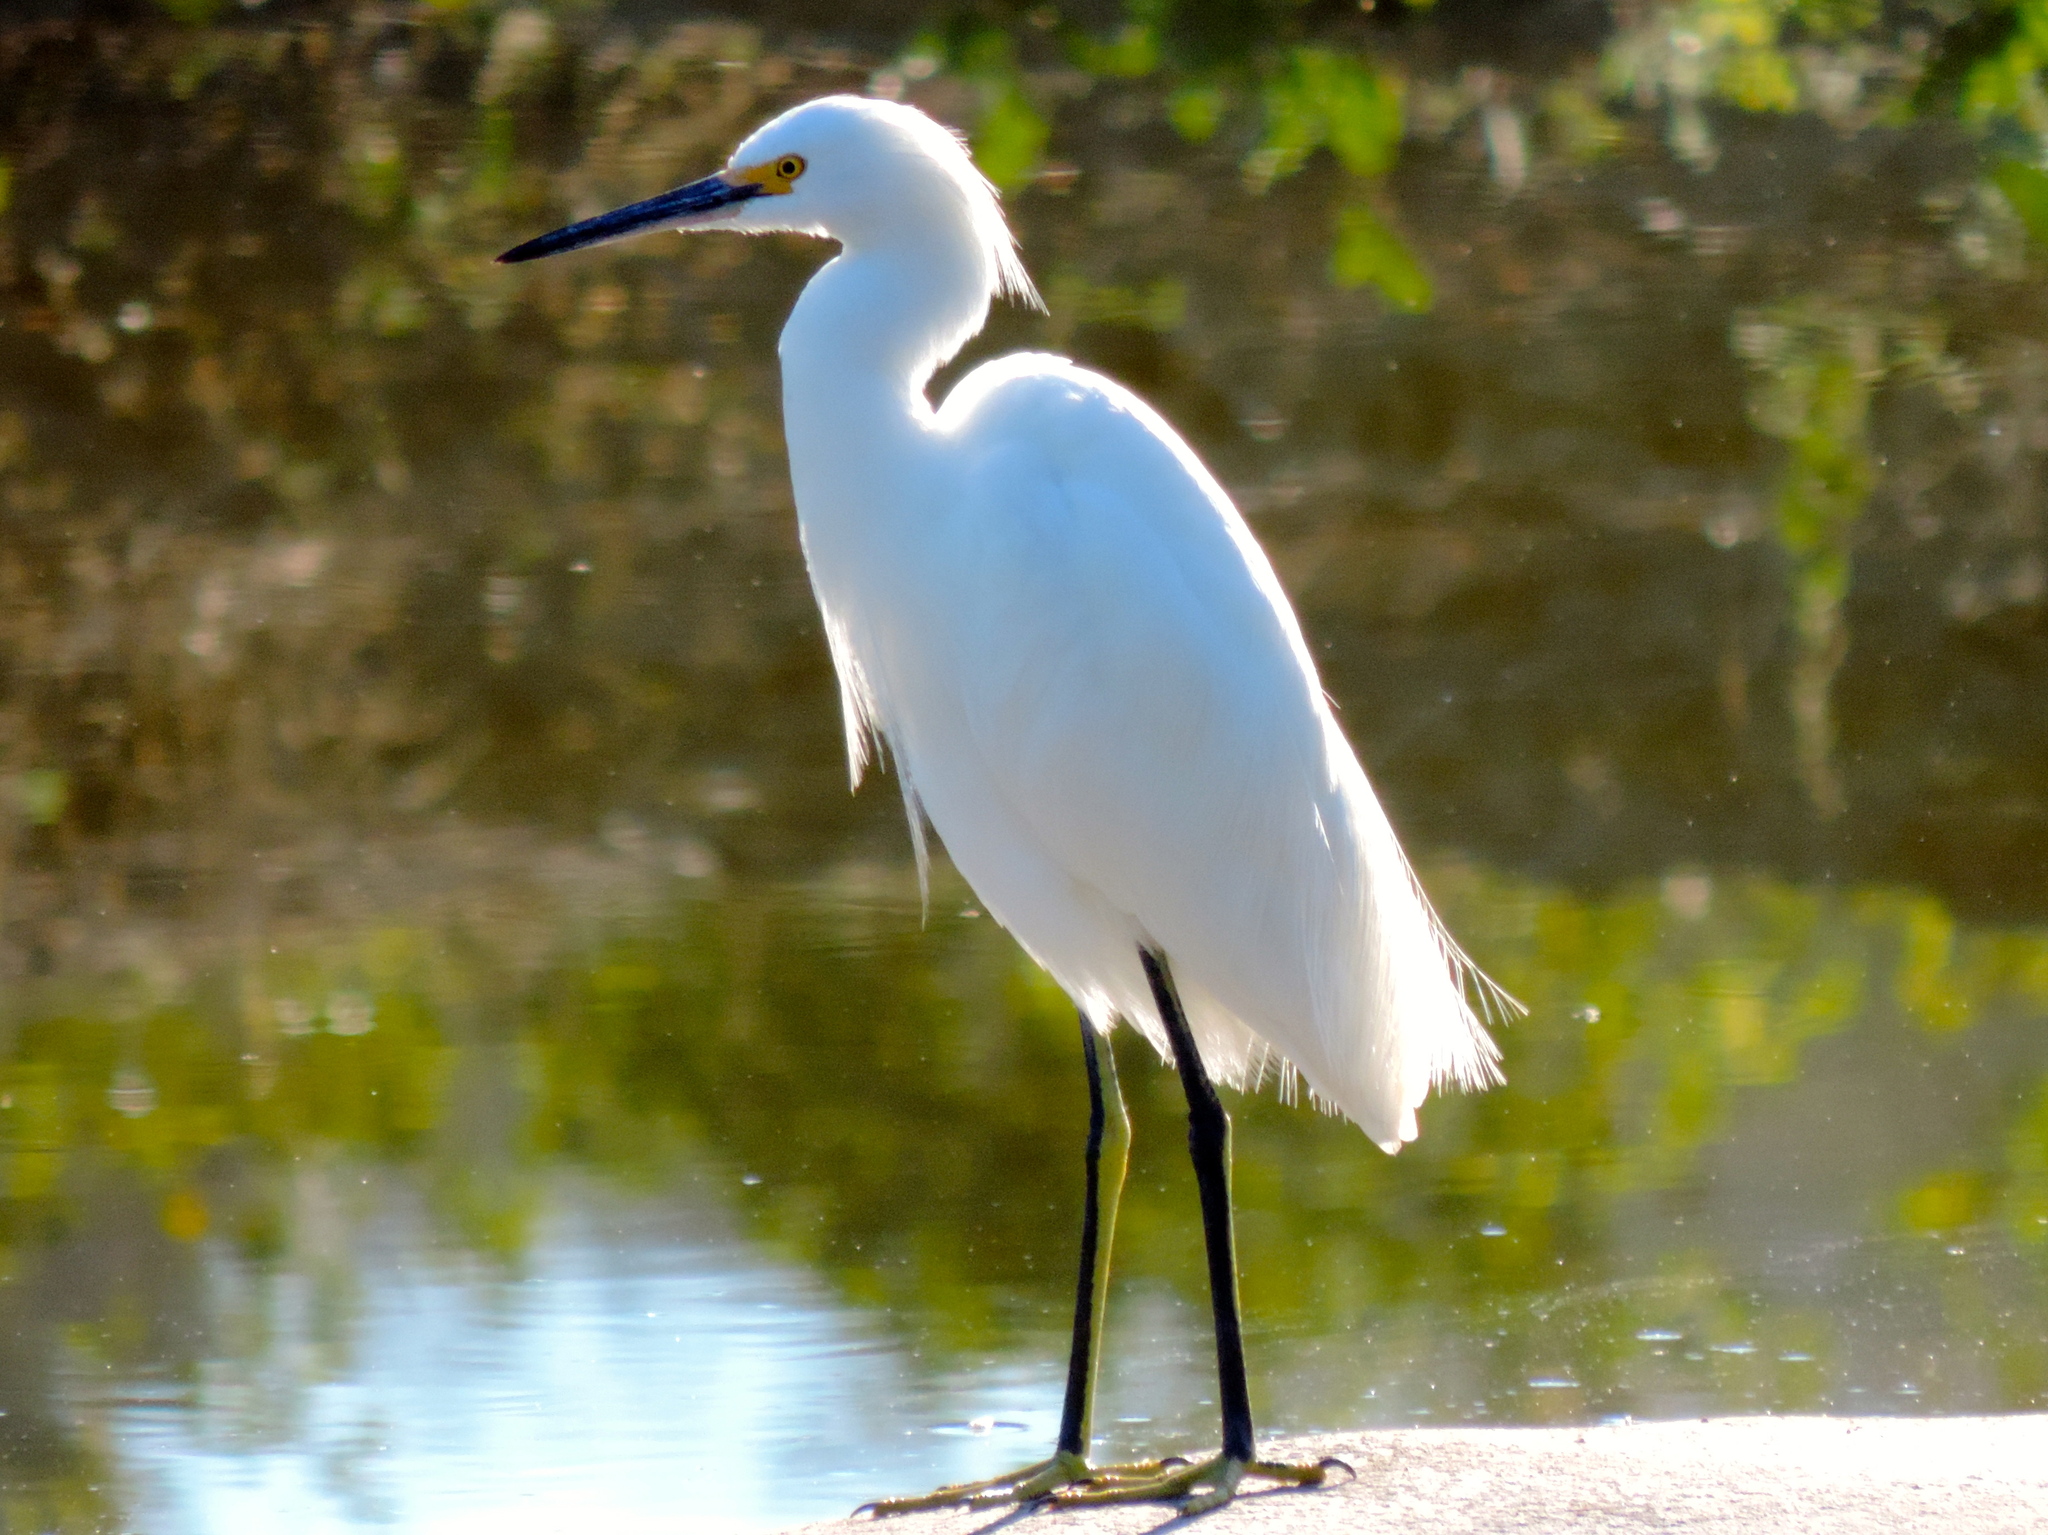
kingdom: Animalia
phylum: Chordata
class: Aves
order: Pelecaniformes
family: Ardeidae
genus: Egretta
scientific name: Egretta thula
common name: Snowy egret
